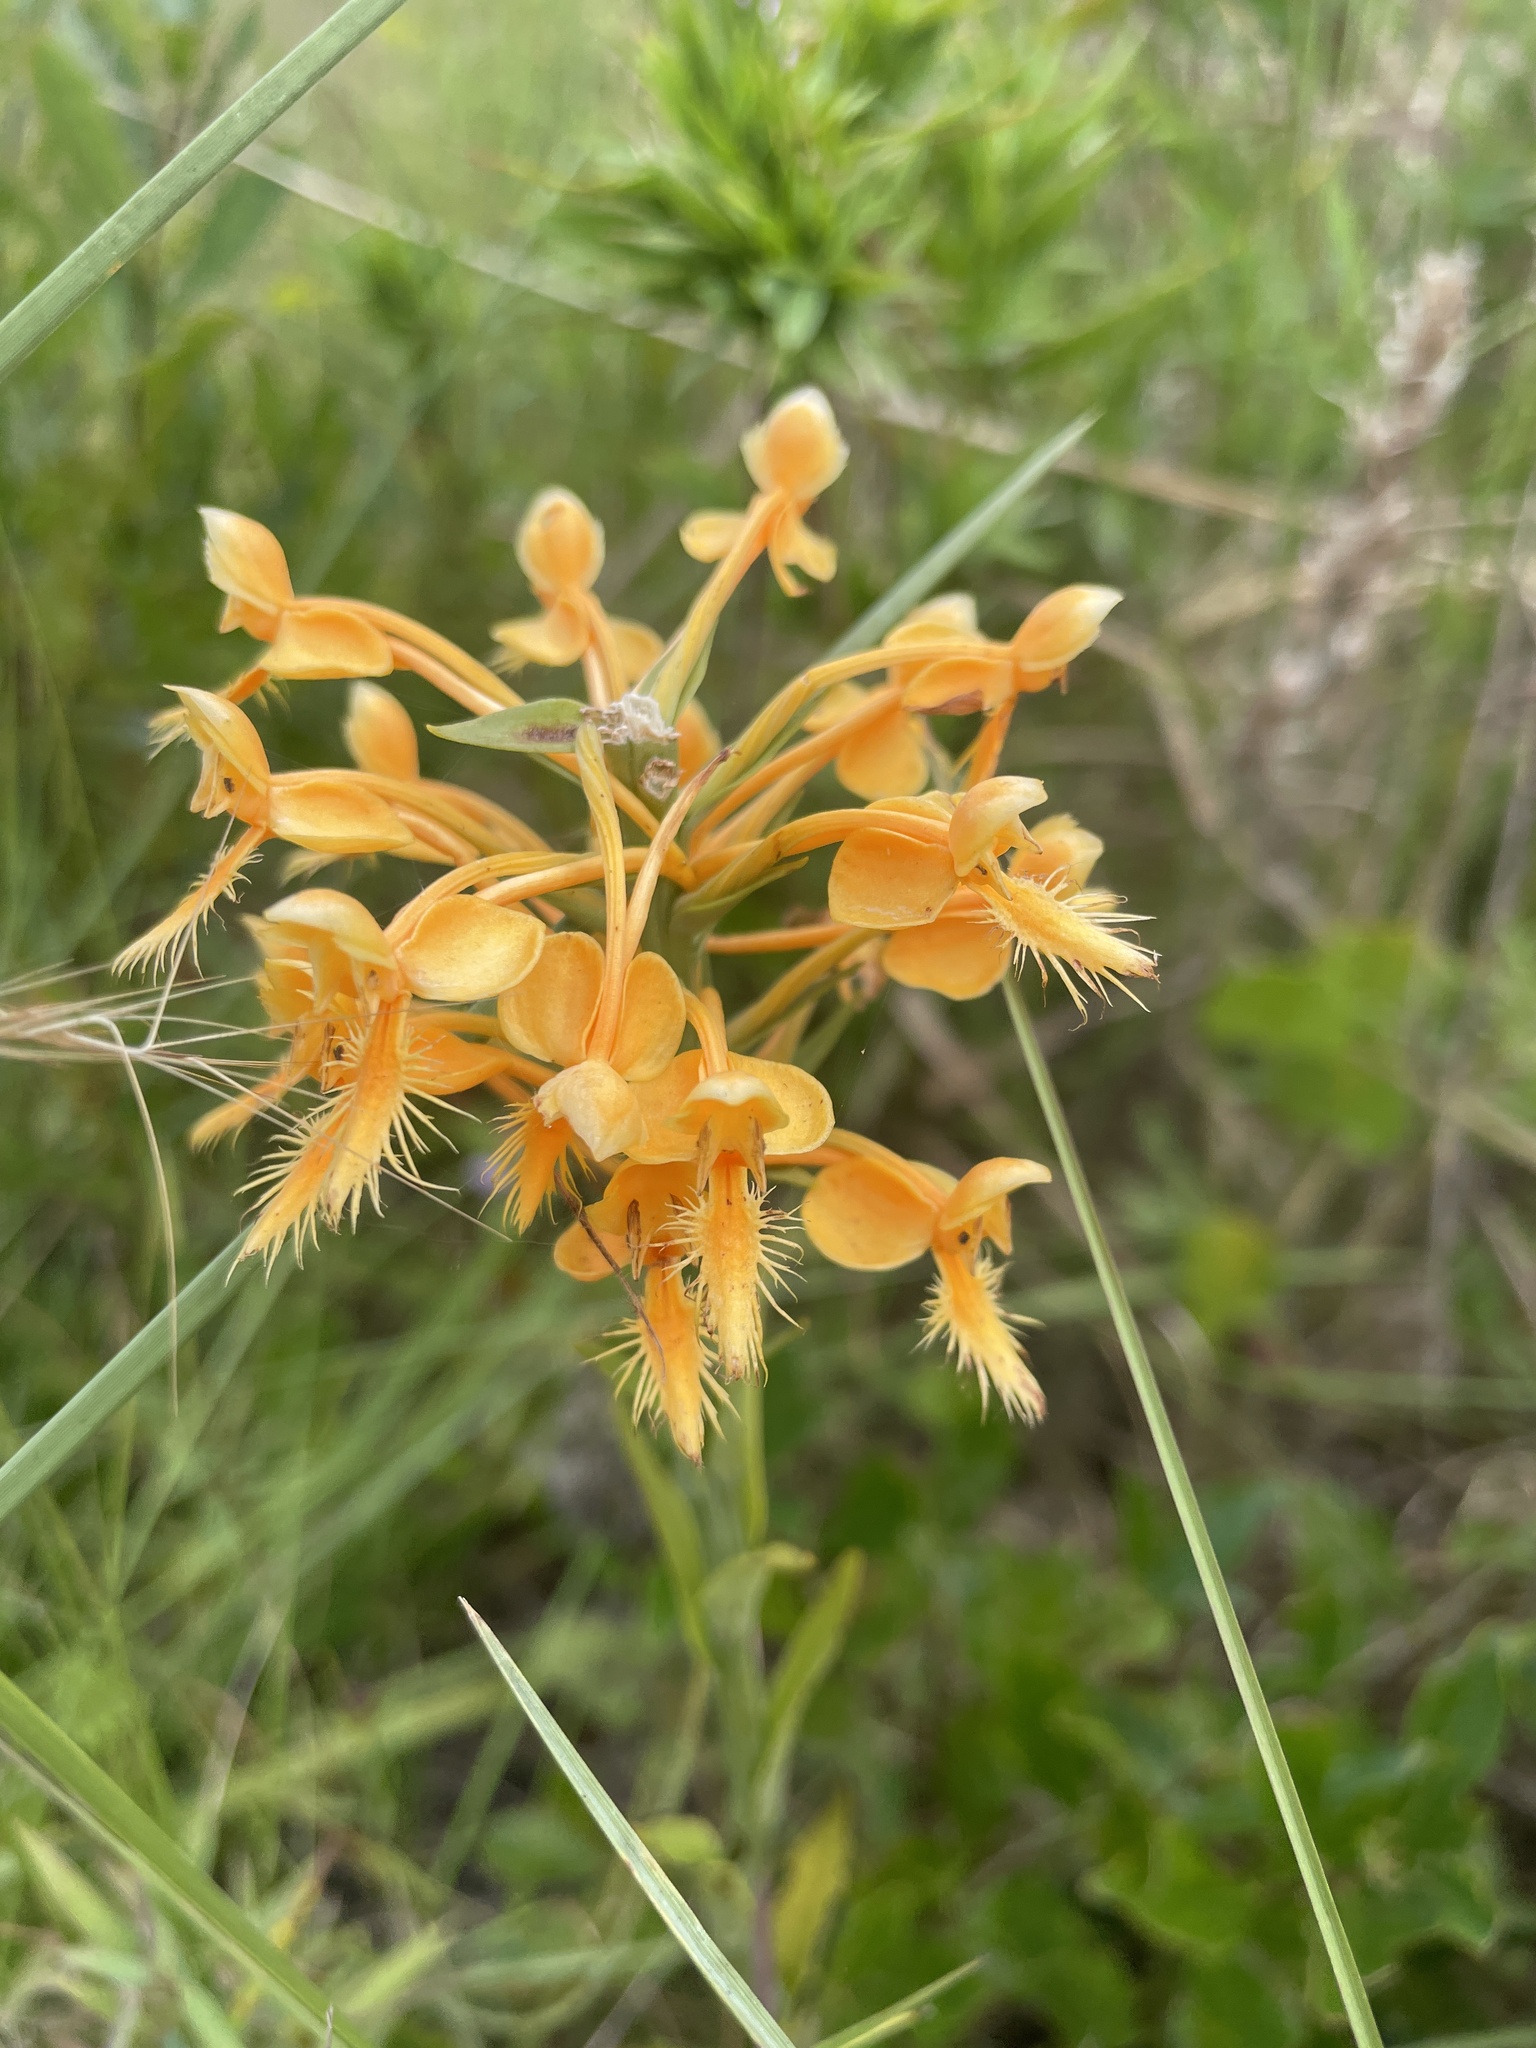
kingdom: Plantae
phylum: Tracheophyta
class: Liliopsida
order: Asparagales
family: Orchidaceae
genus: Platanthera
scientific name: Platanthera ciliaris
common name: Yellow fringed orchid
